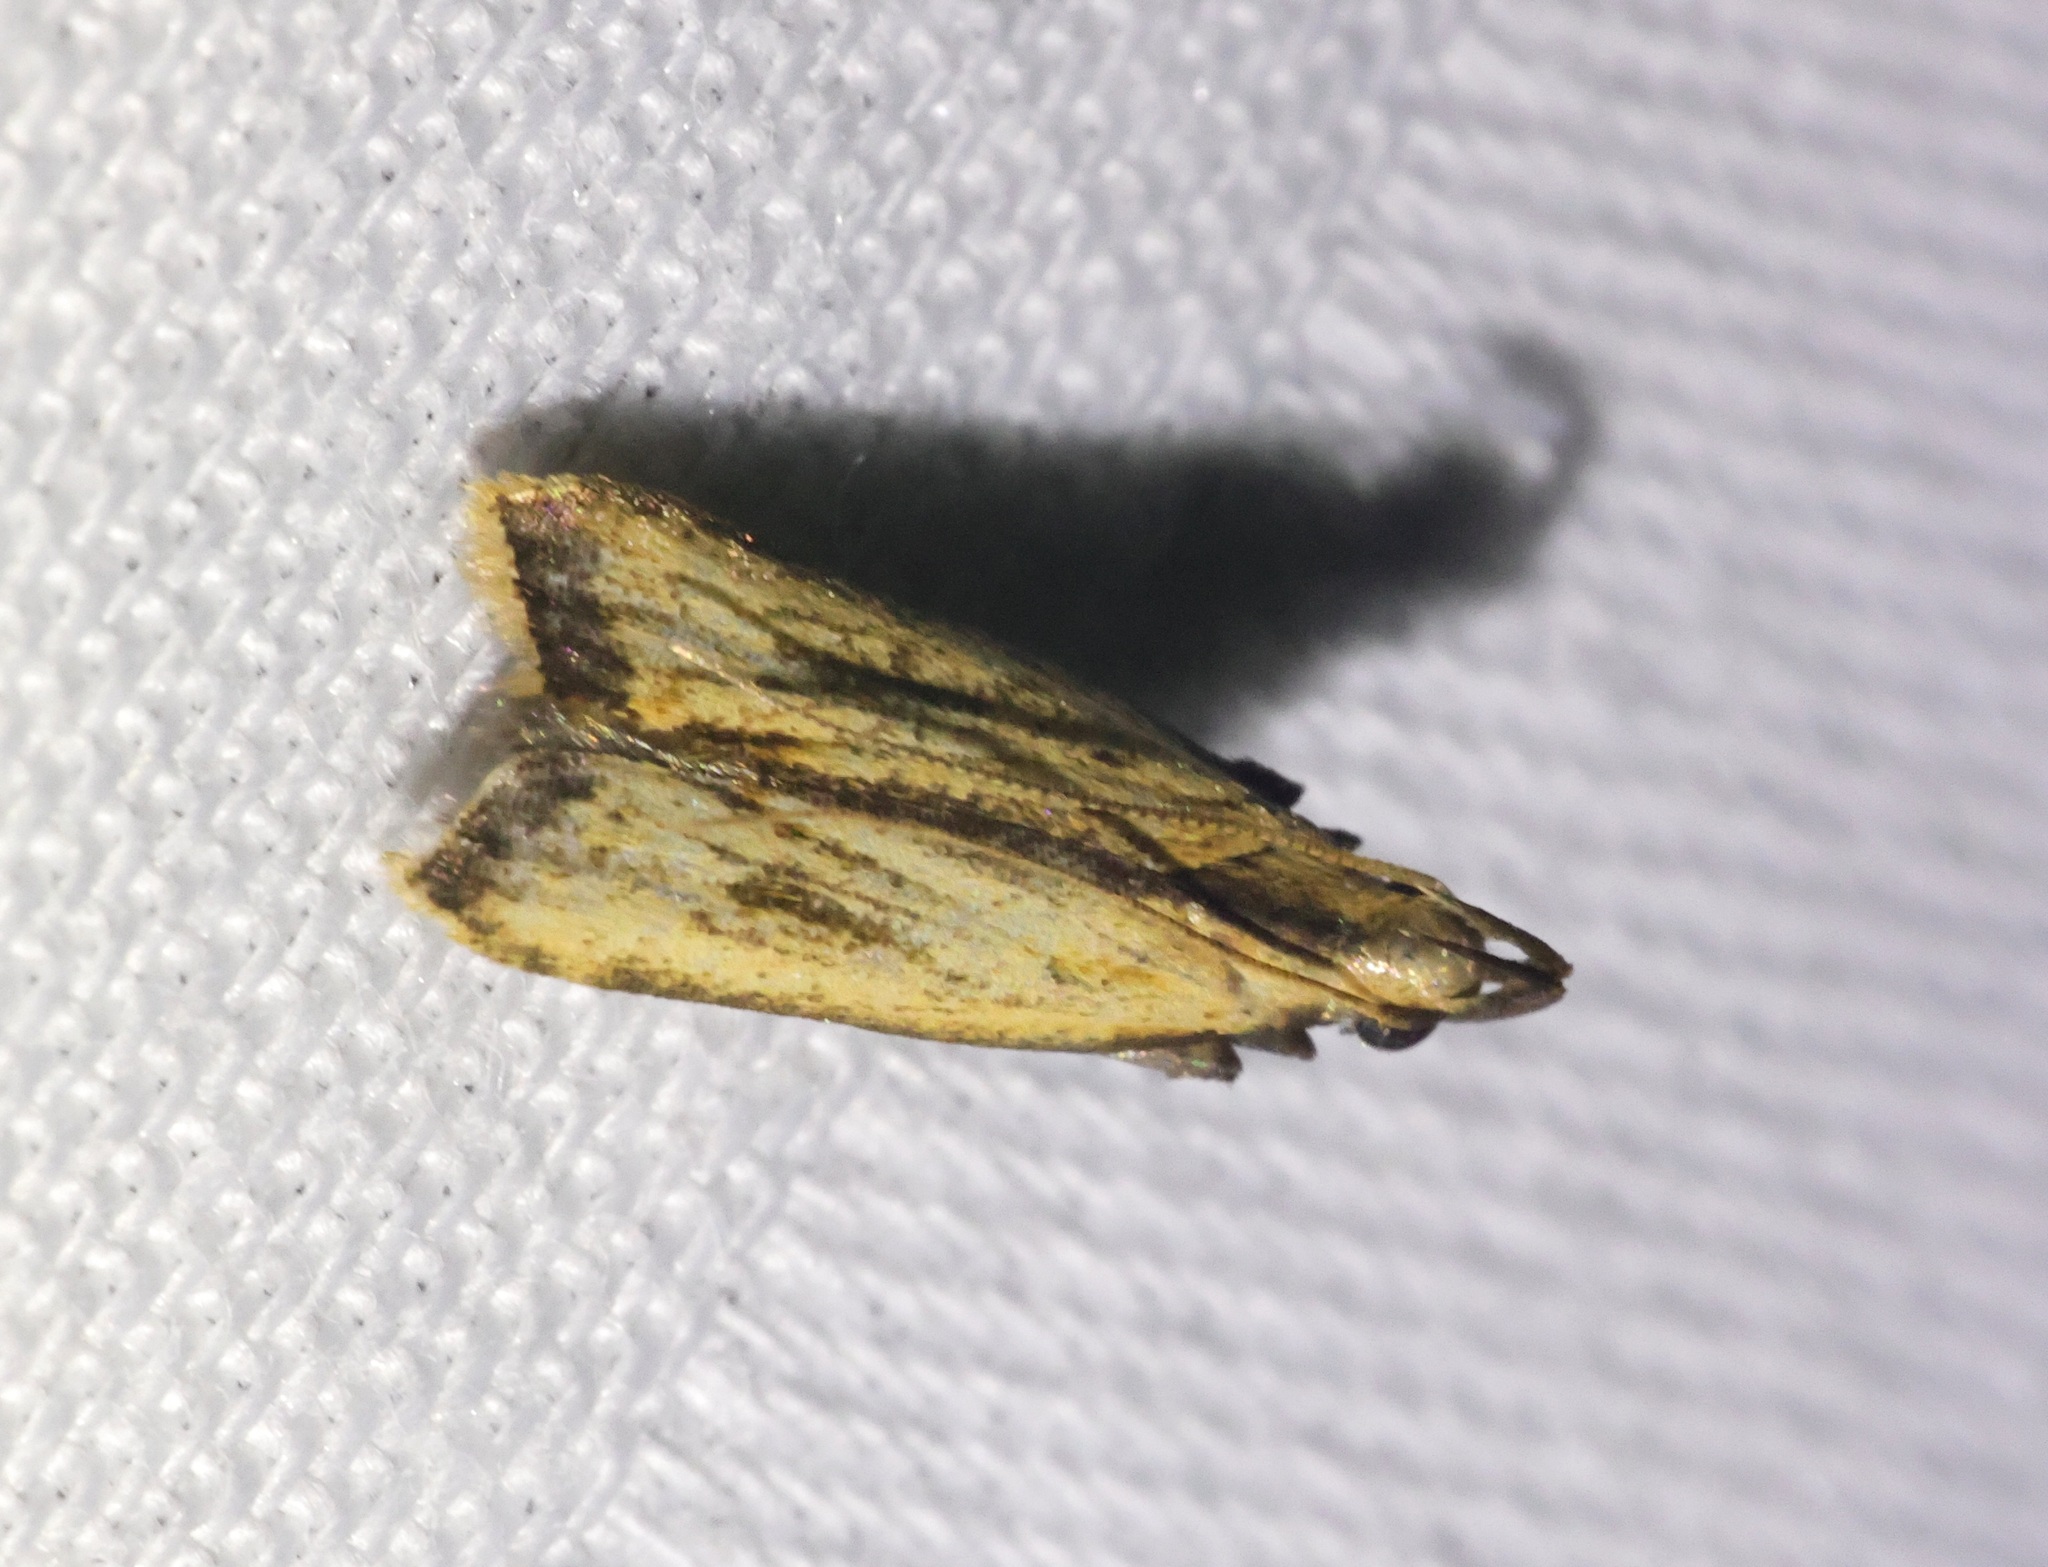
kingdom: Animalia
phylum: Arthropoda
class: Insecta
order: Lepidoptera
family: Gelechiidae
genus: Dichomeris
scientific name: Dichomeris parvisexafurca
